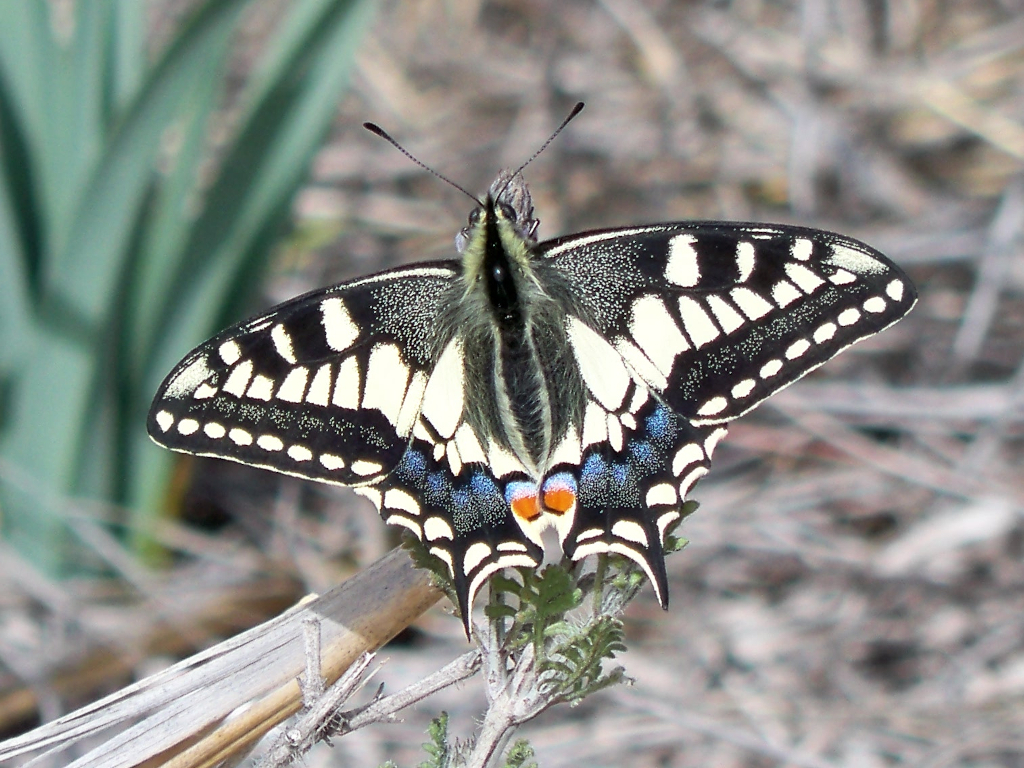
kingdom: Animalia
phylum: Arthropoda
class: Insecta
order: Lepidoptera
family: Papilionidae
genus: Papilio
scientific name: Papilio machaon
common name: Swallowtail
